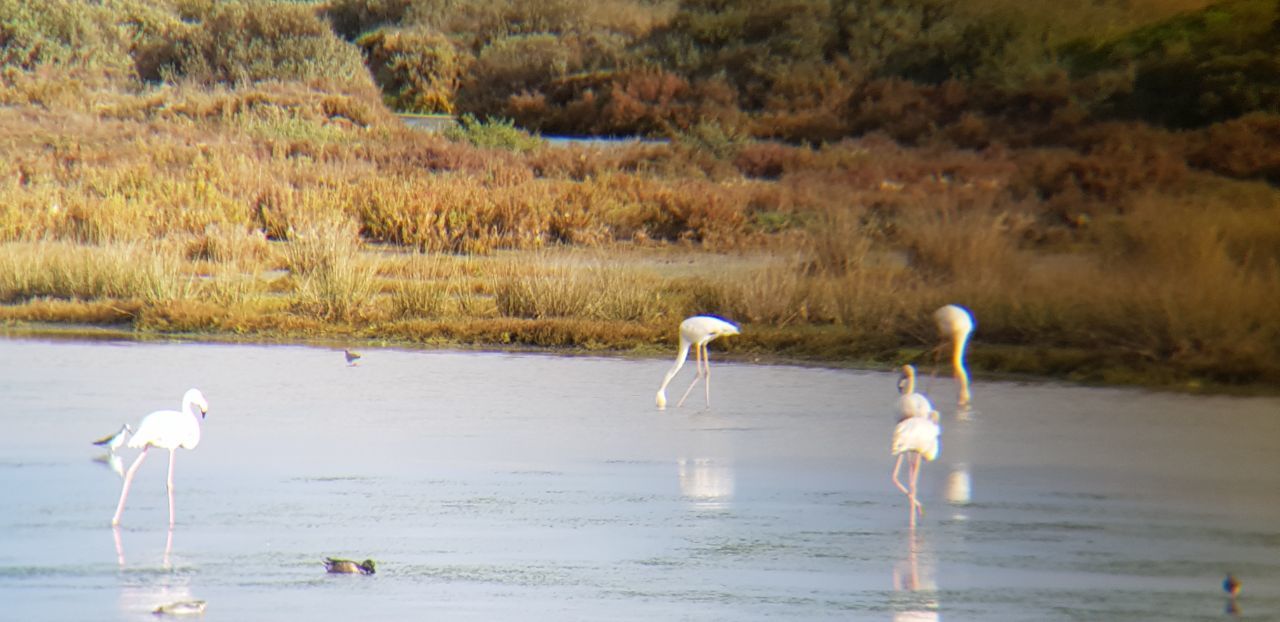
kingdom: Animalia
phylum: Chordata
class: Aves
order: Phoenicopteriformes
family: Phoenicopteridae
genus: Phoenicopterus
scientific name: Phoenicopterus roseus
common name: Greater flamingo
